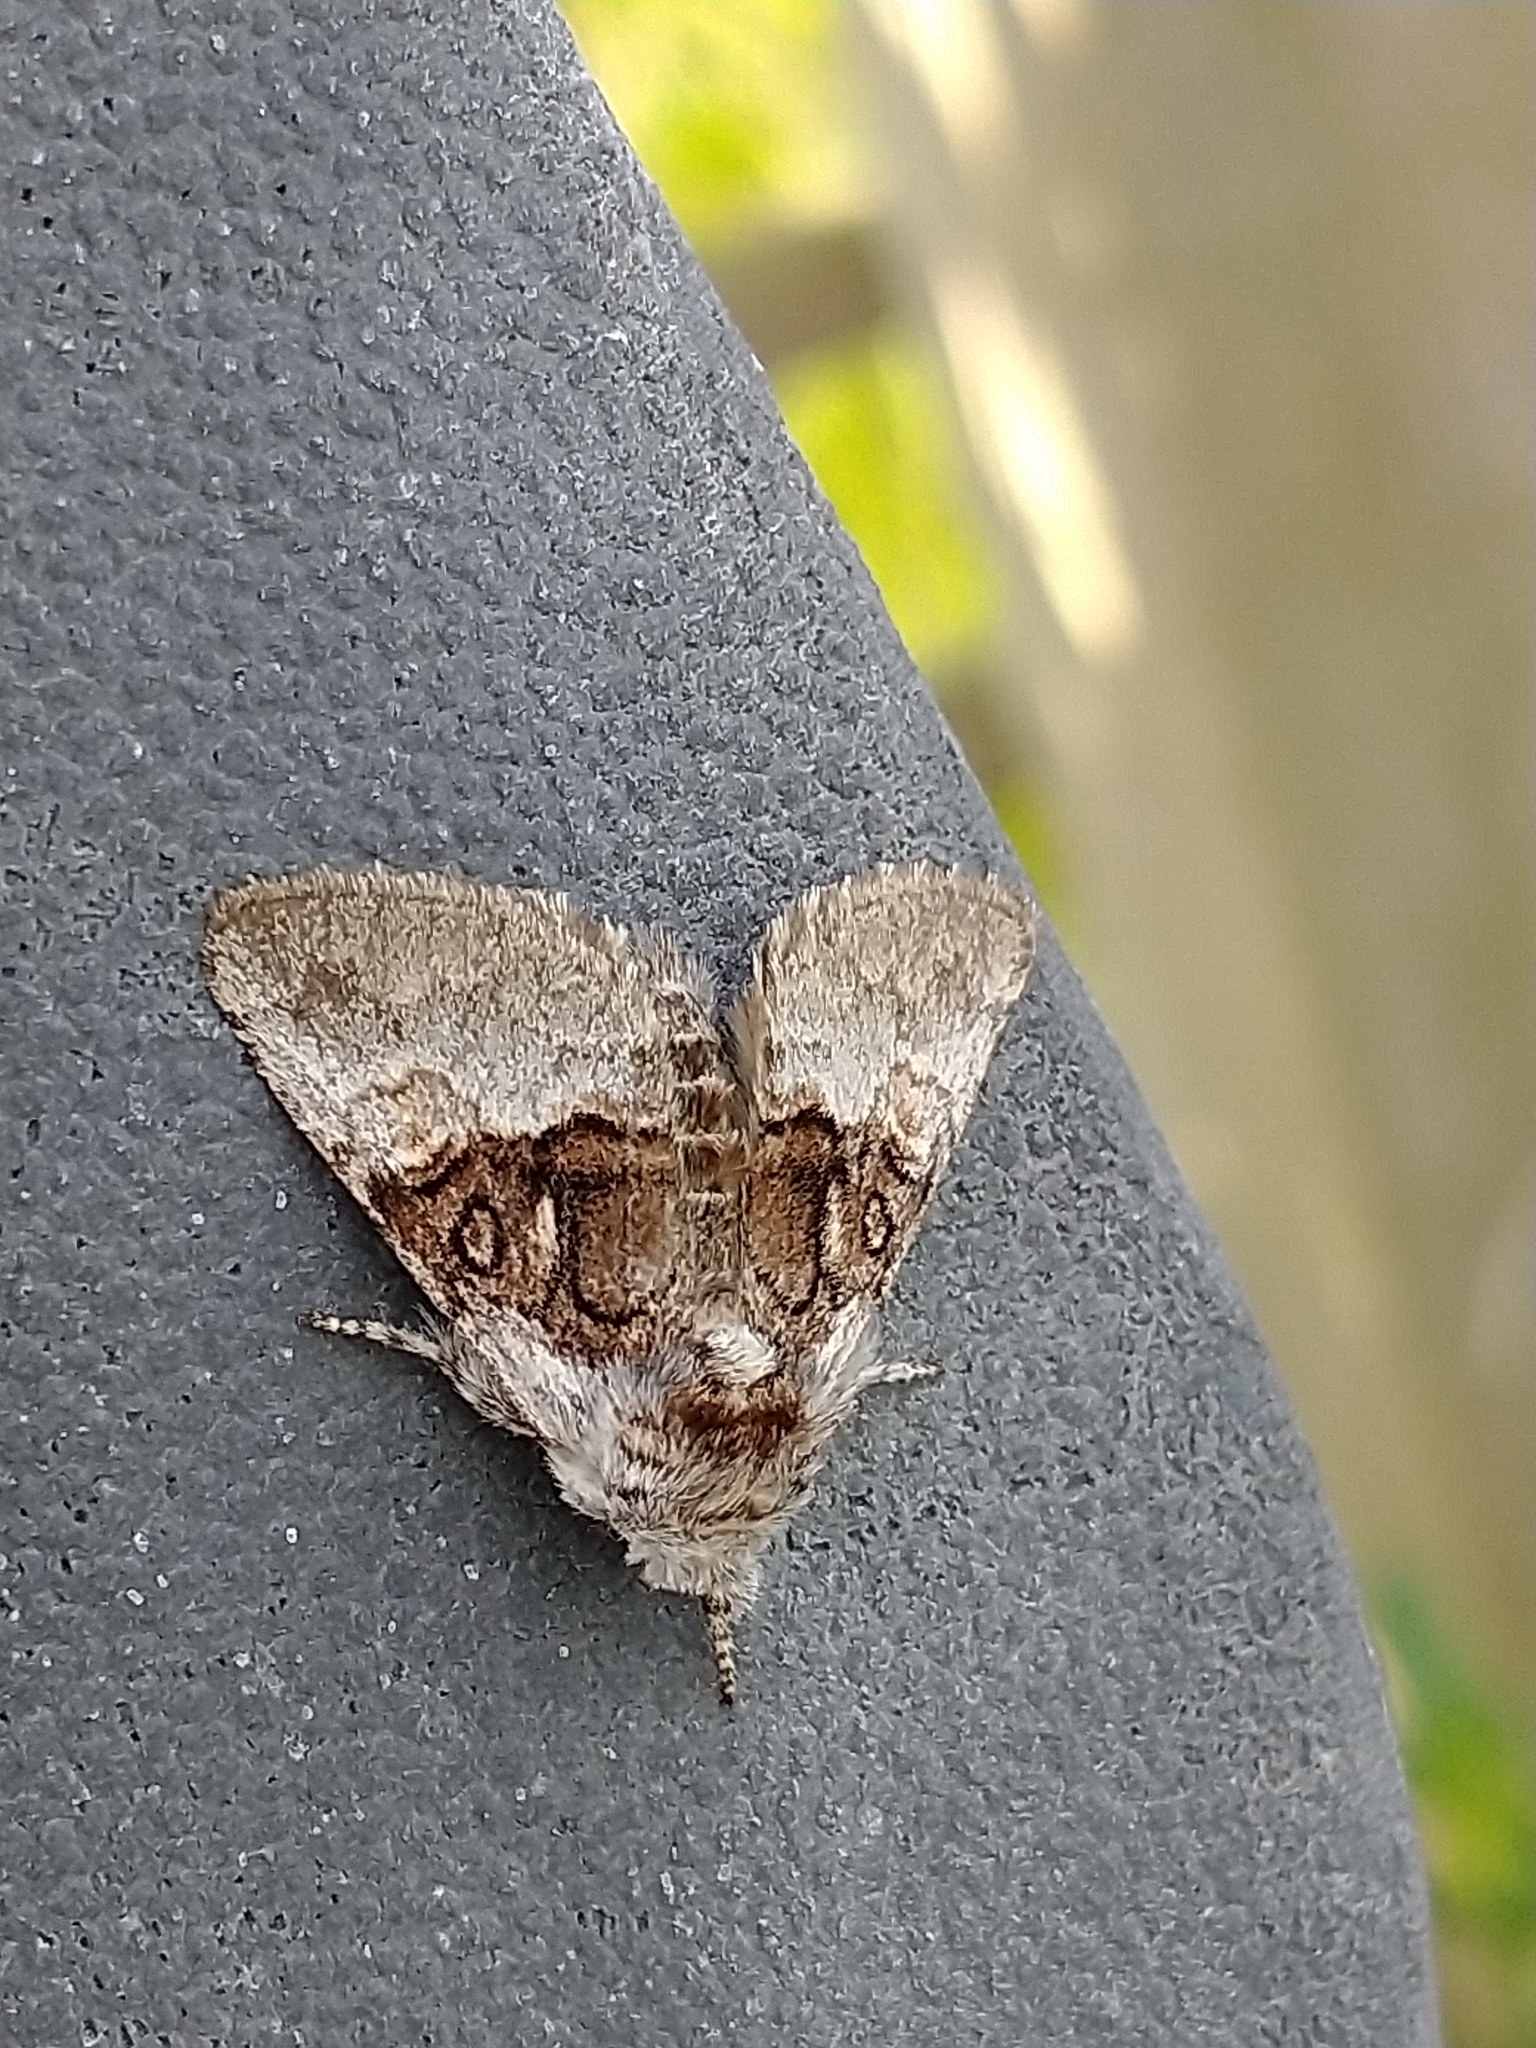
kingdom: Animalia
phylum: Arthropoda
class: Insecta
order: Lepidoptera
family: Noctuidae
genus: Colocasia
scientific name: Colocasia coryli
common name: Nut-tree tussock
